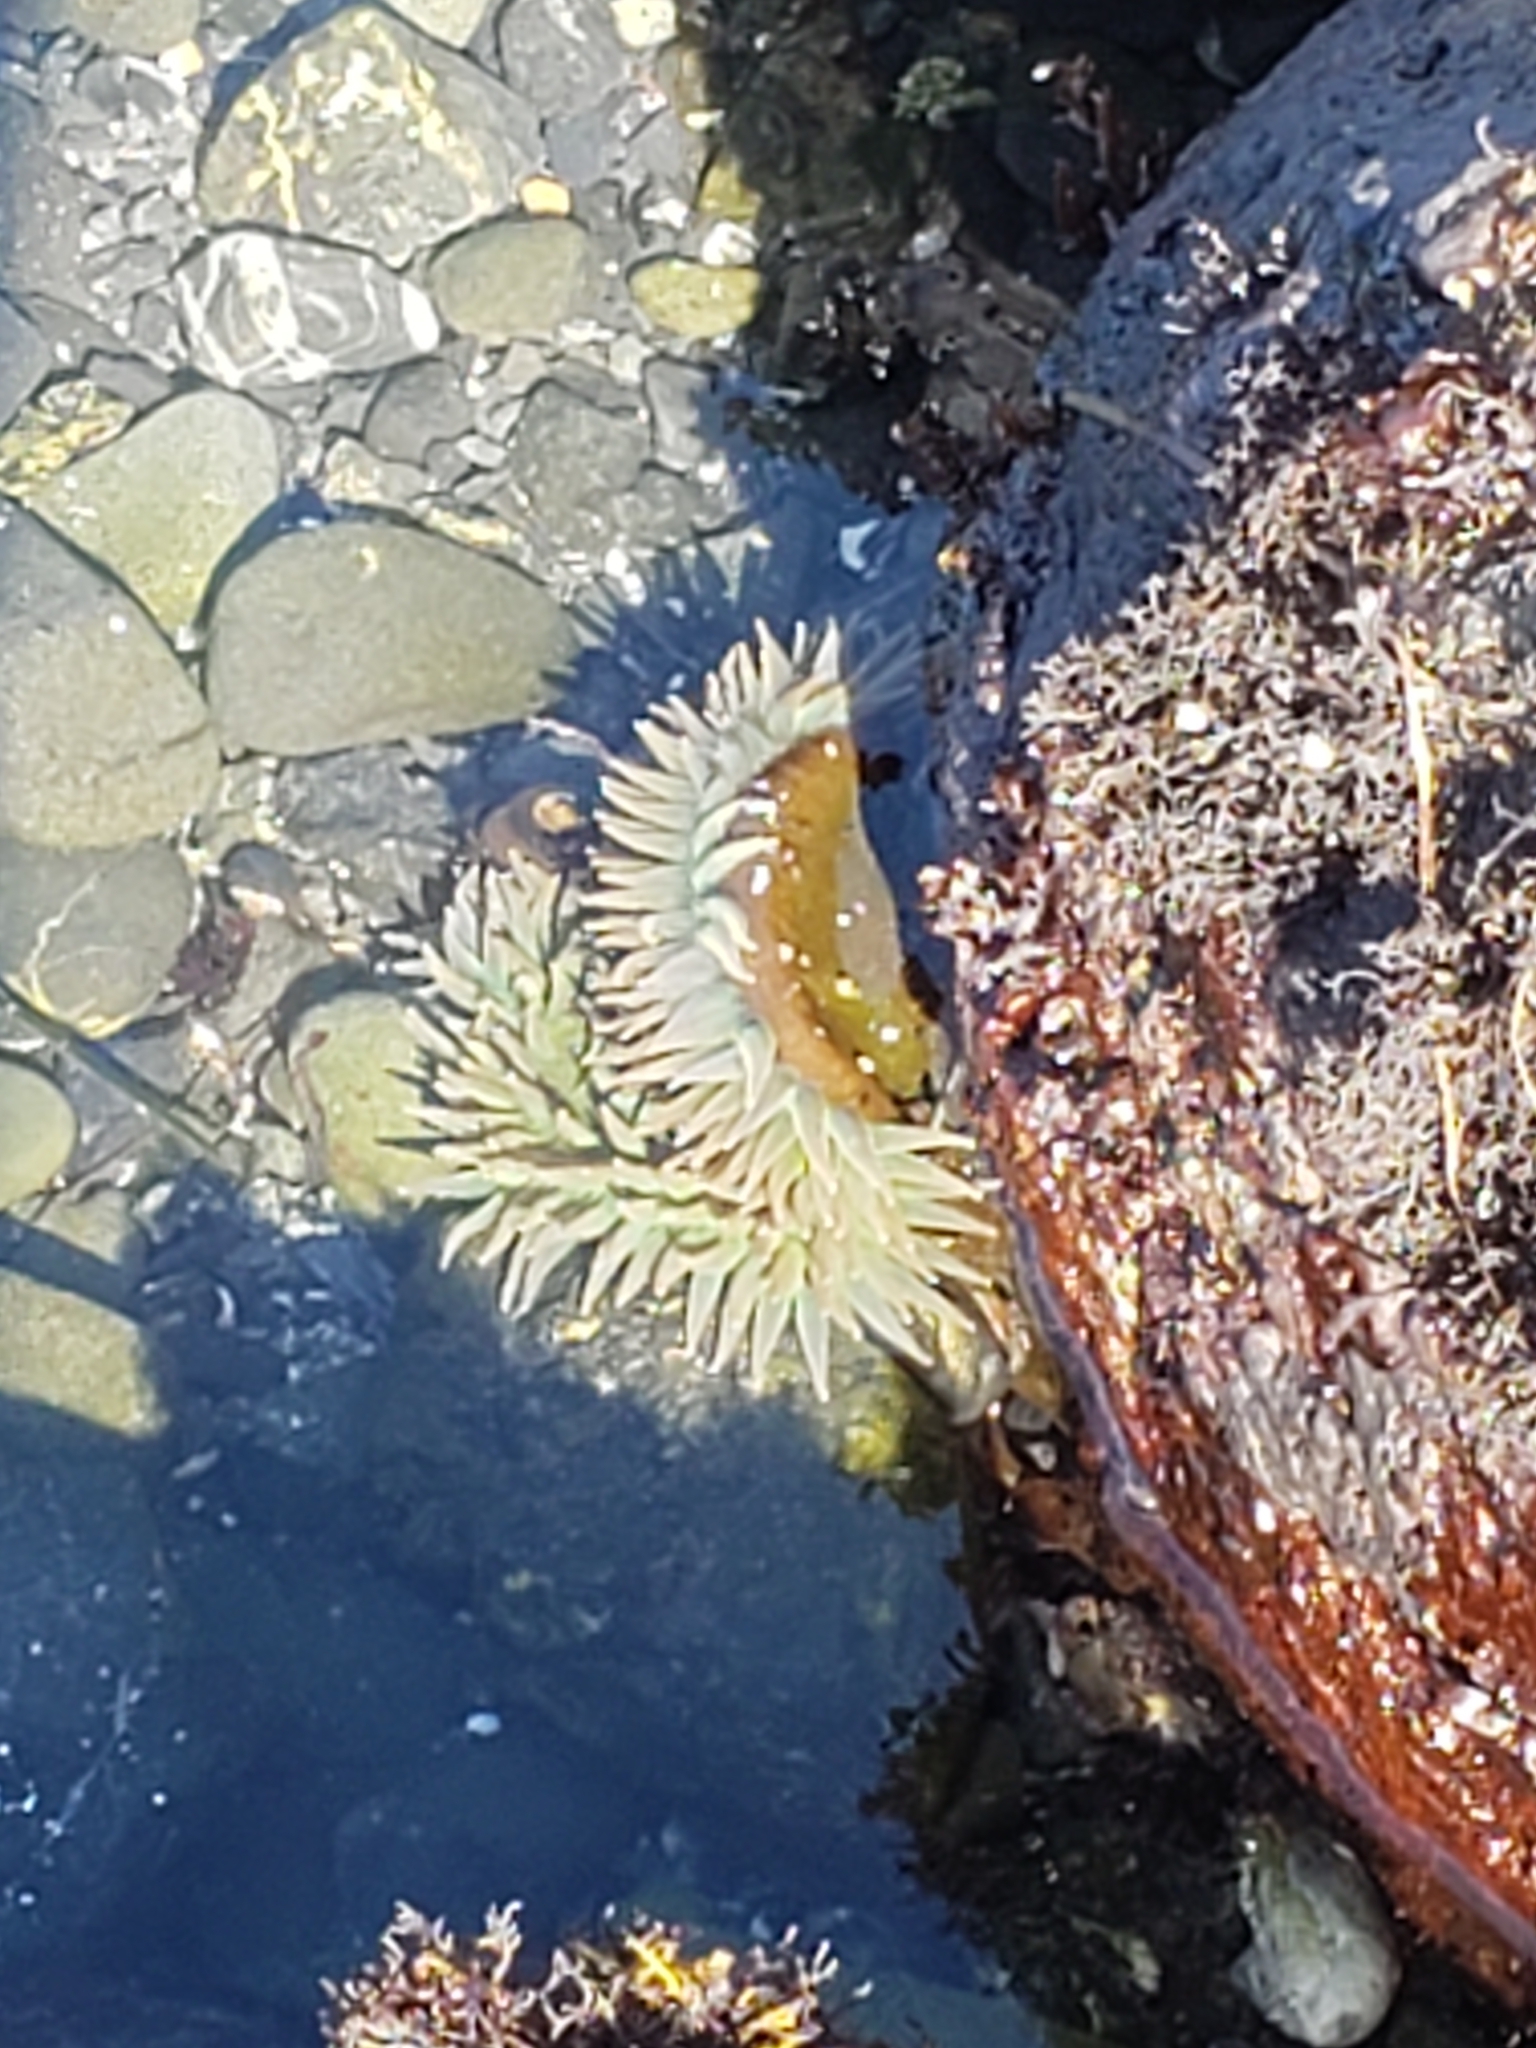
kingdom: Animalia
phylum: Cnidaria
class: Anthozoa
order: Actiniaria
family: Actiniidae
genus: Anthopleura
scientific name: Anthopleura xanthogrammica
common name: Giant green anemone
